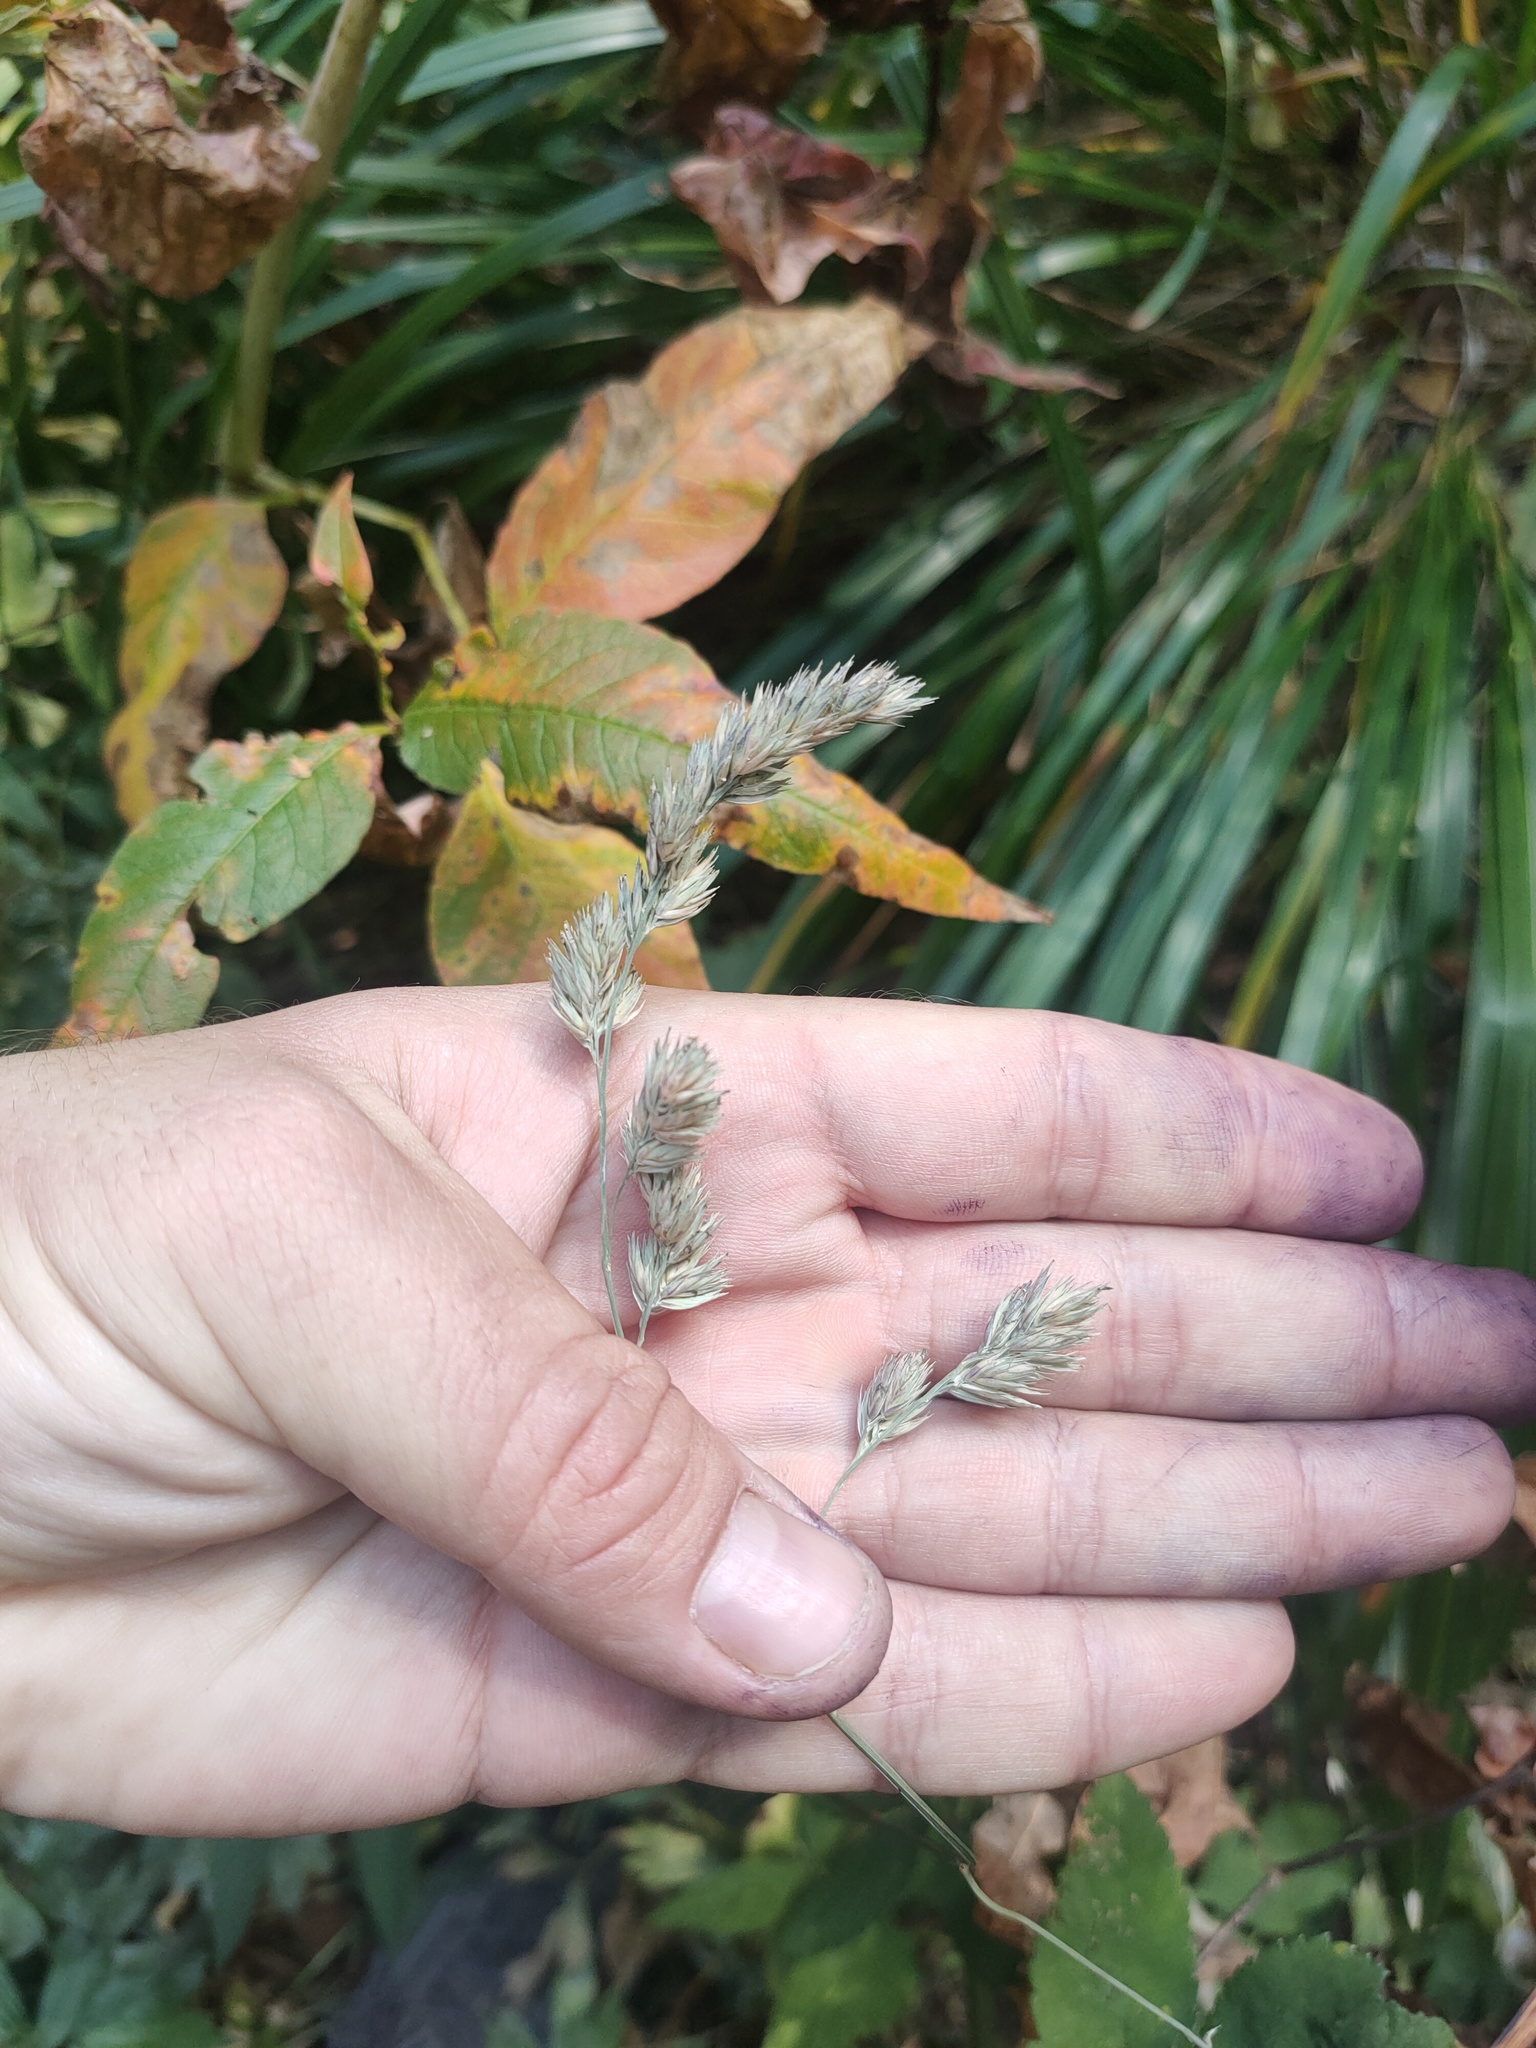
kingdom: Plantae
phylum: Tracheophyta
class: Liliopsida
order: Poales
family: Poaceae
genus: Dactylis
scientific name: Dactylis glomerata
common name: Orchardgrass
